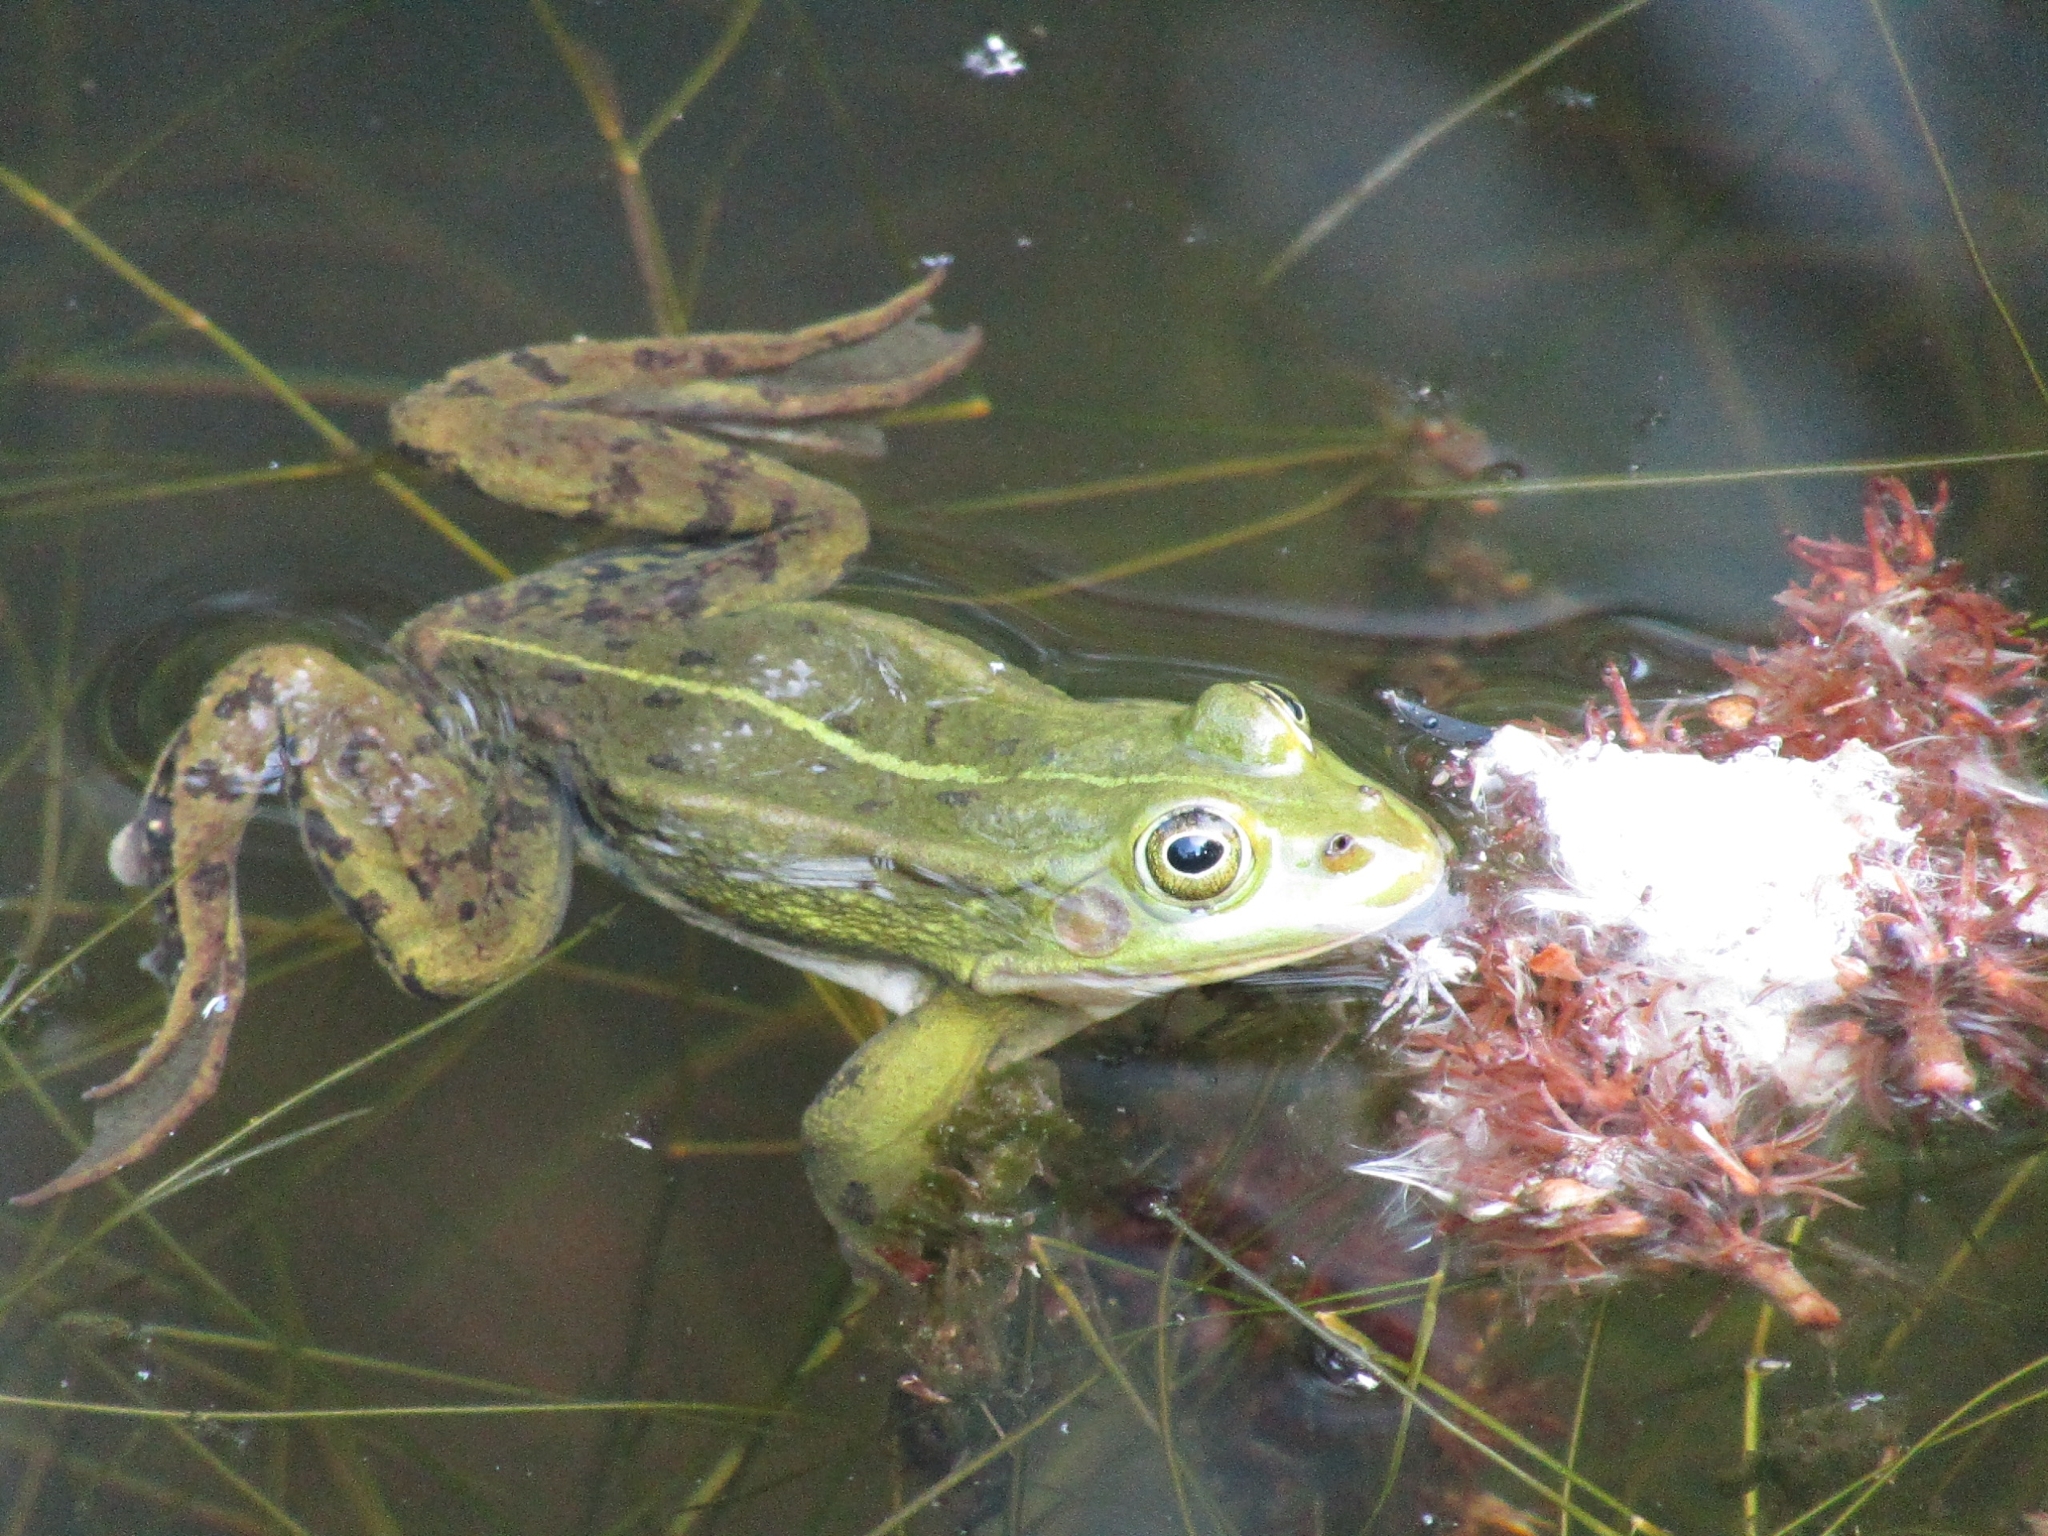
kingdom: Animalia
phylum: Chordata
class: Amphibia
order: Anura
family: Ranidae
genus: Pelophylax
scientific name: Pelophylax lessonae
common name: Pool frog
